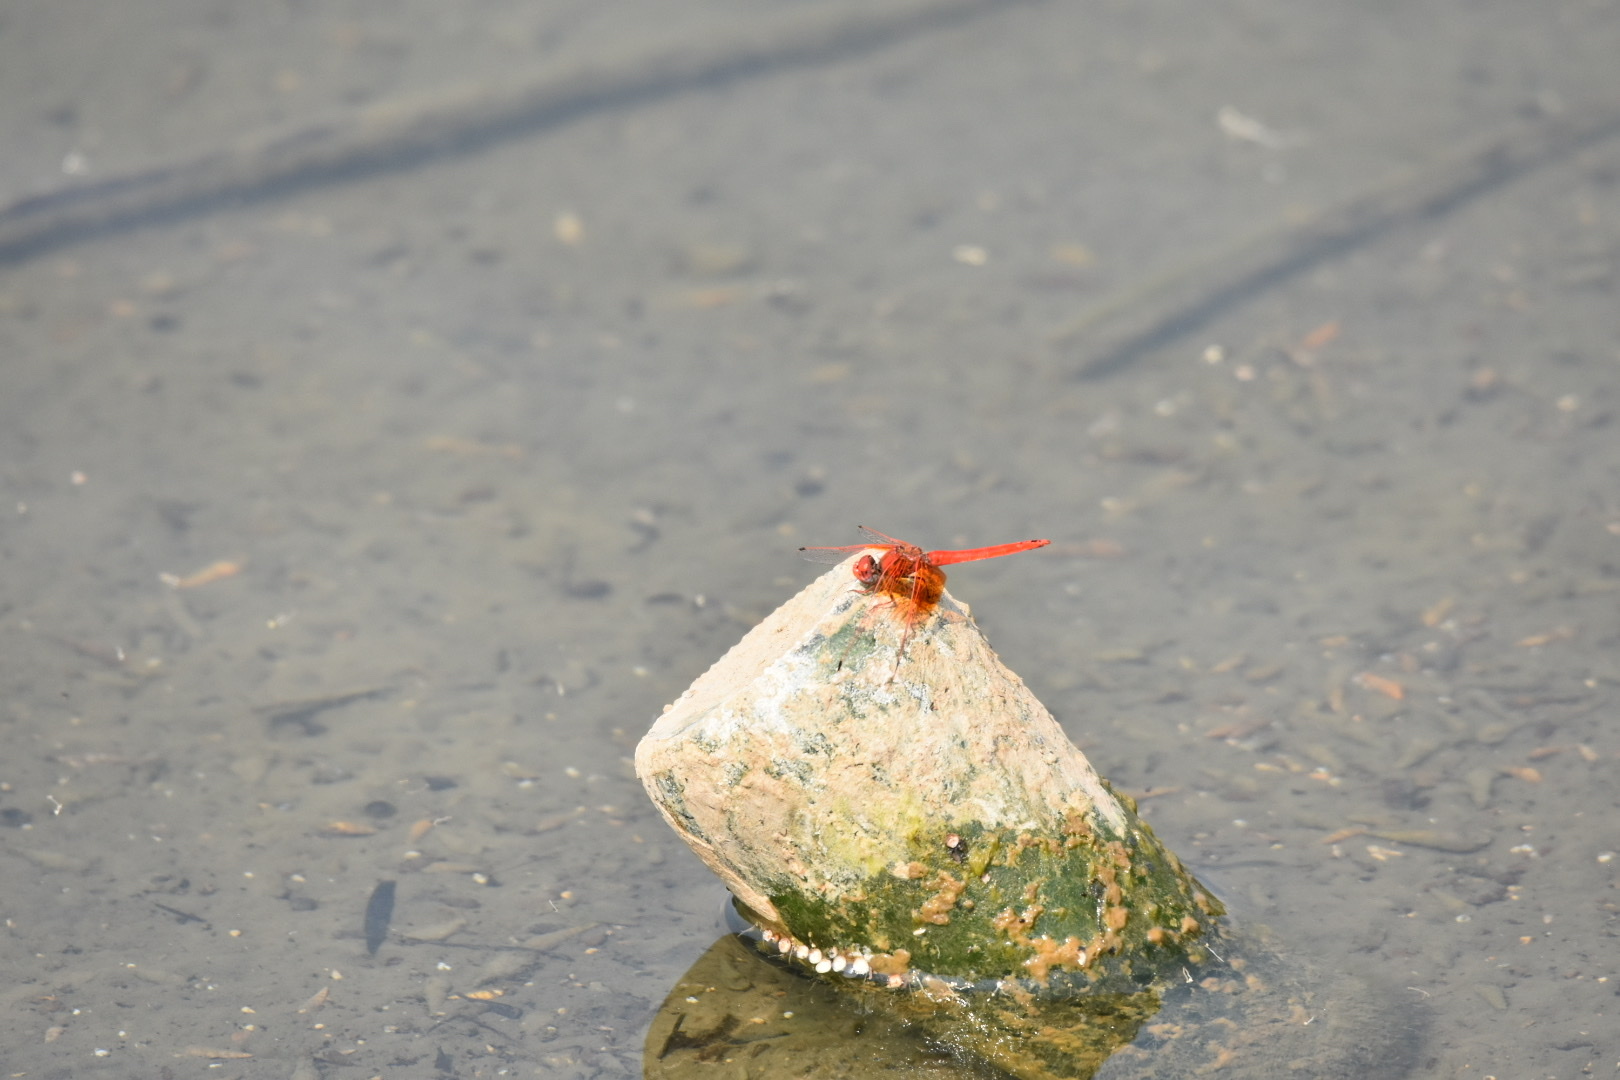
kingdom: Animalia
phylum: Arthropoda
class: Insecta
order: Odonata
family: Libellulidae
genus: Trithemis
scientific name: Trithemis kirbyi
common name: Kirby's dropwing
